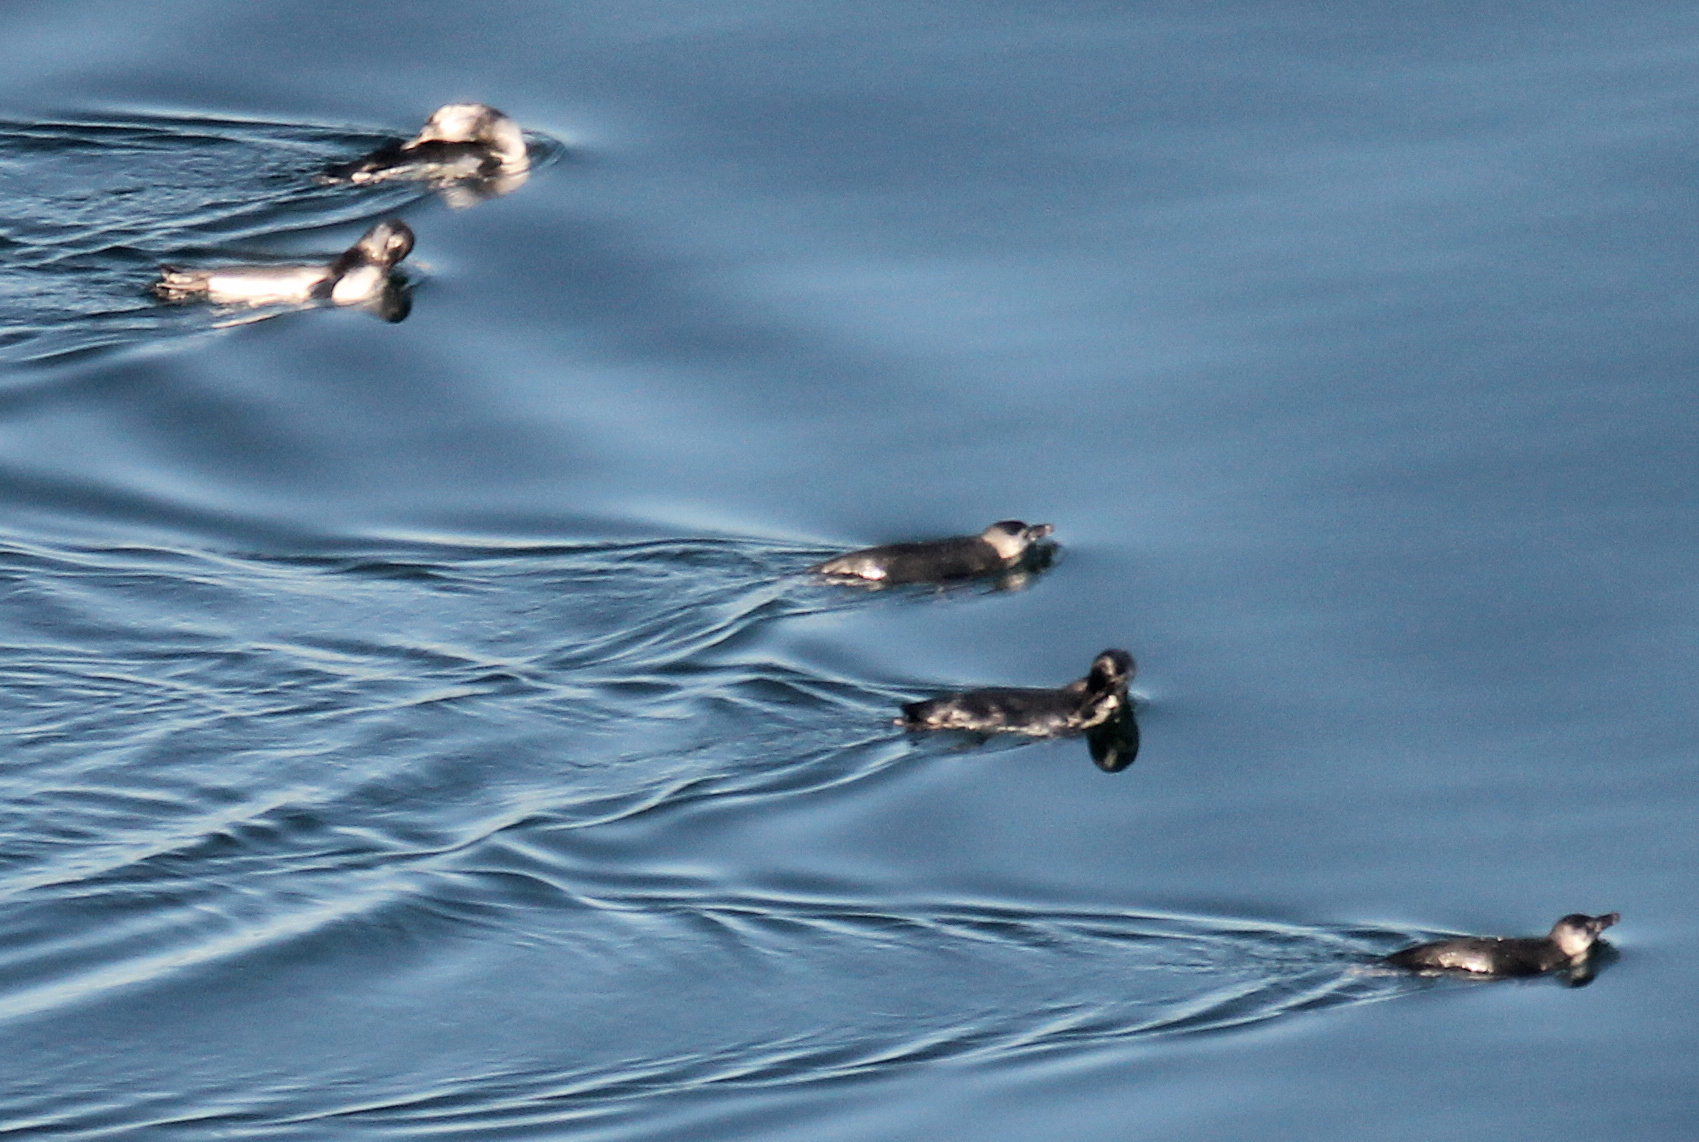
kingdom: Animalia
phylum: Chordata
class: Aves
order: Sphenisciformes
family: Spheniscidae
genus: Spheniscus
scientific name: Spheniscus magellanicus
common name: Magellanic penguin
